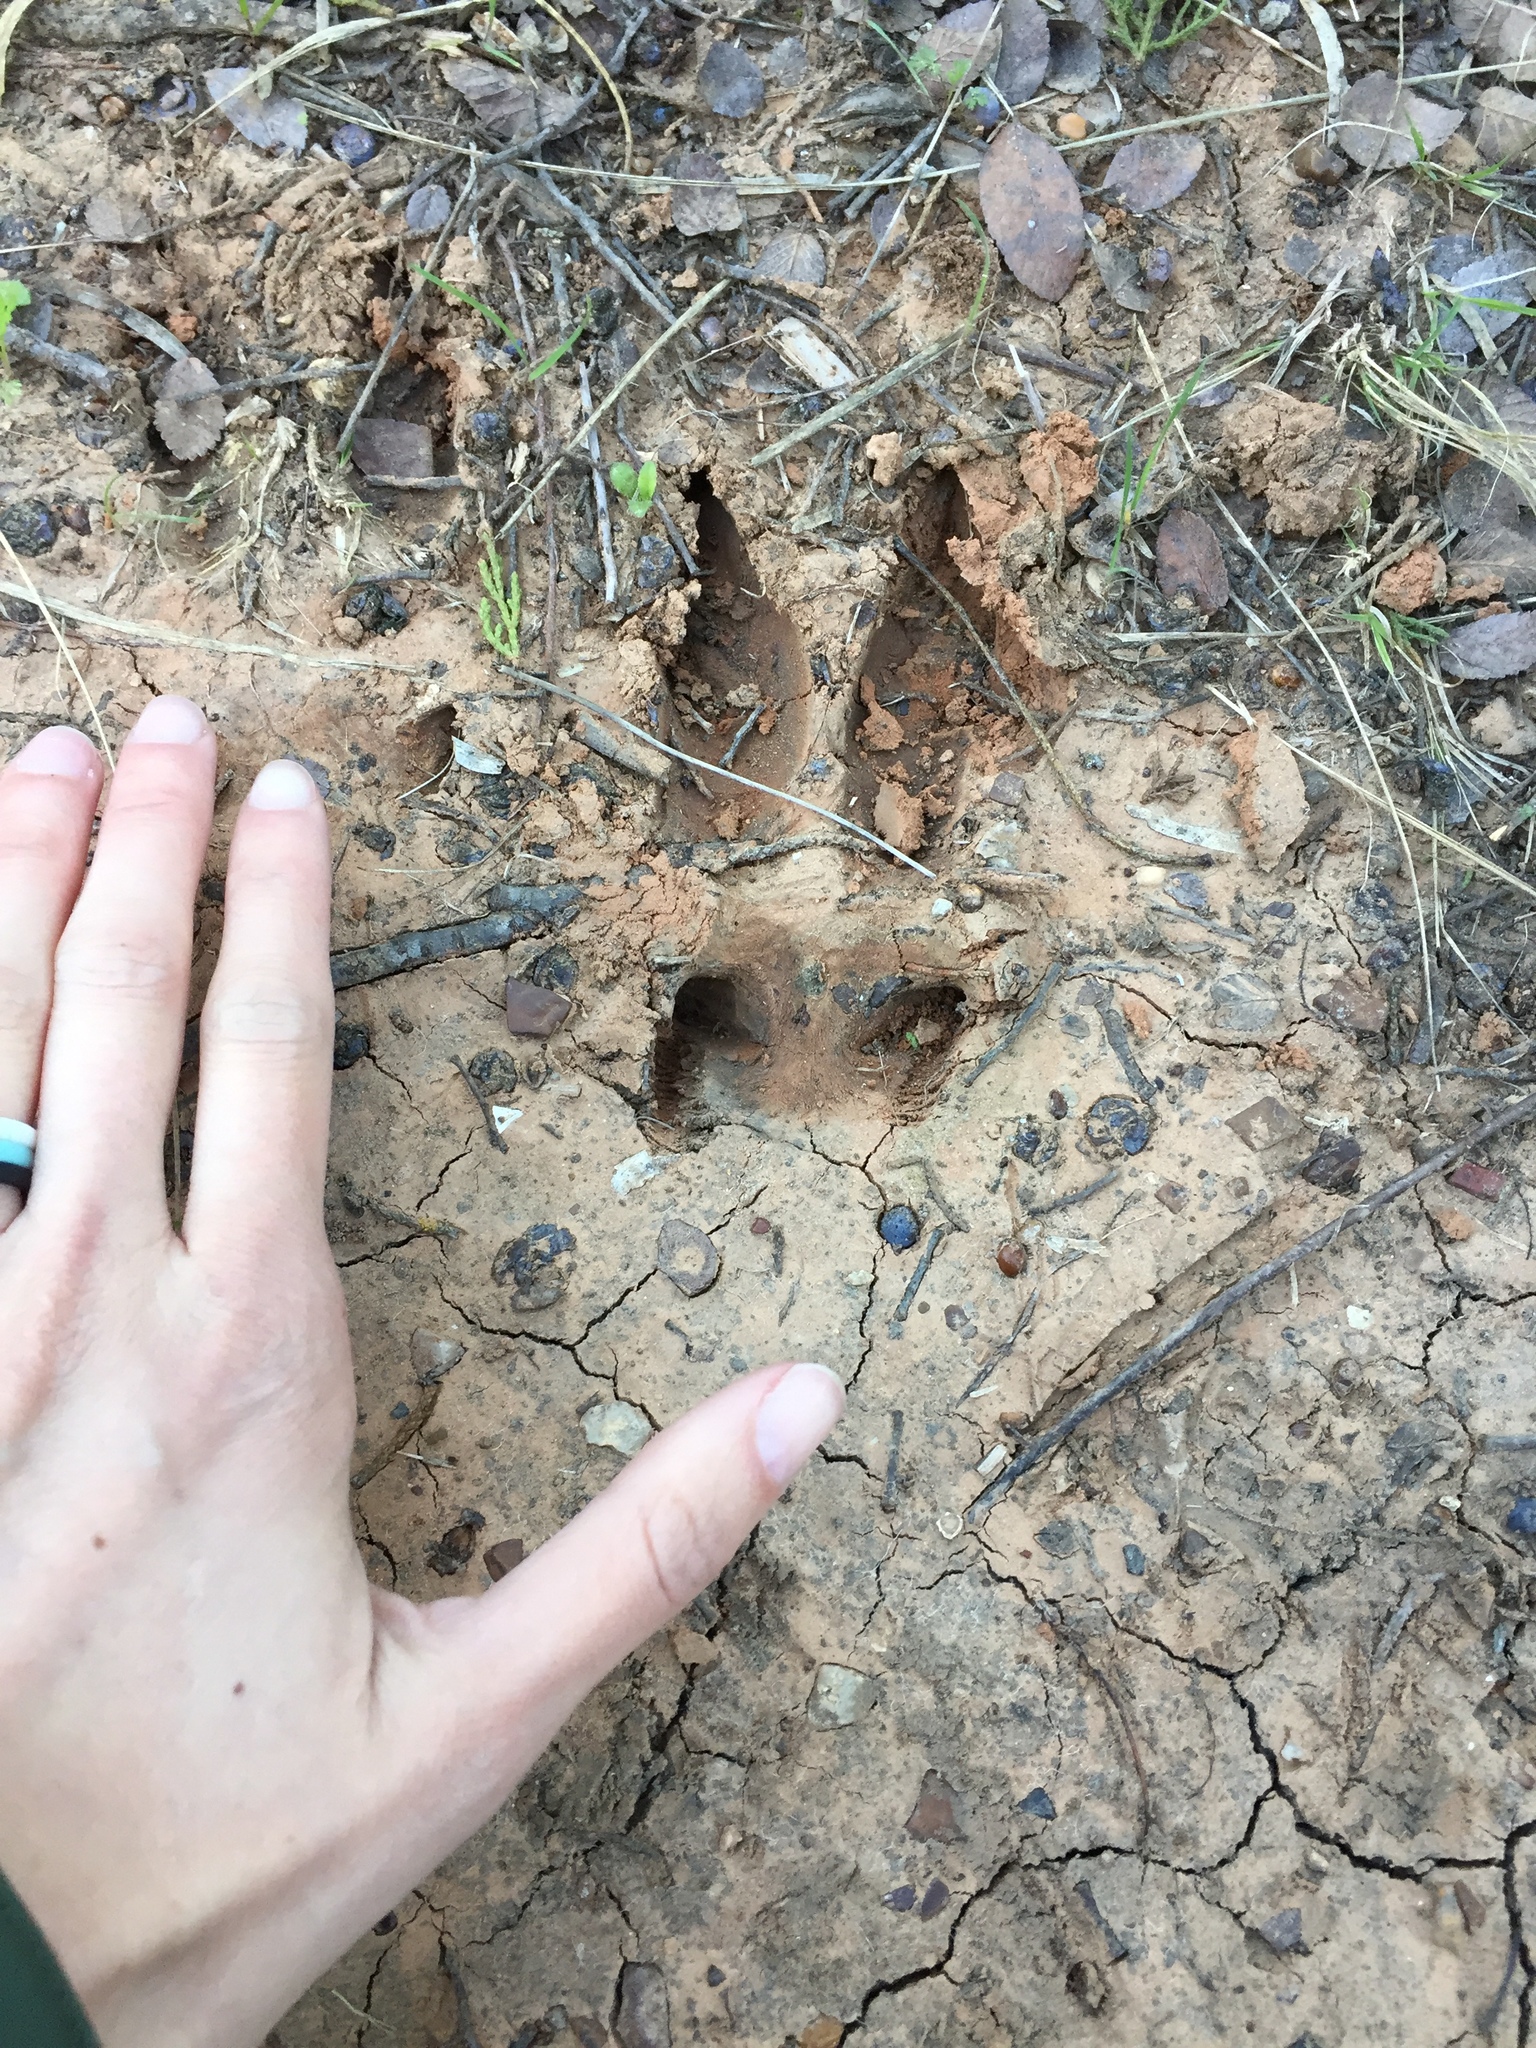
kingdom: Animalia
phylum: Chordata
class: Mammalia
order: Artiodactyla
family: Cervidae
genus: Odocoileus
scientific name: Odocoileus virginianus
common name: White-tailed deer
